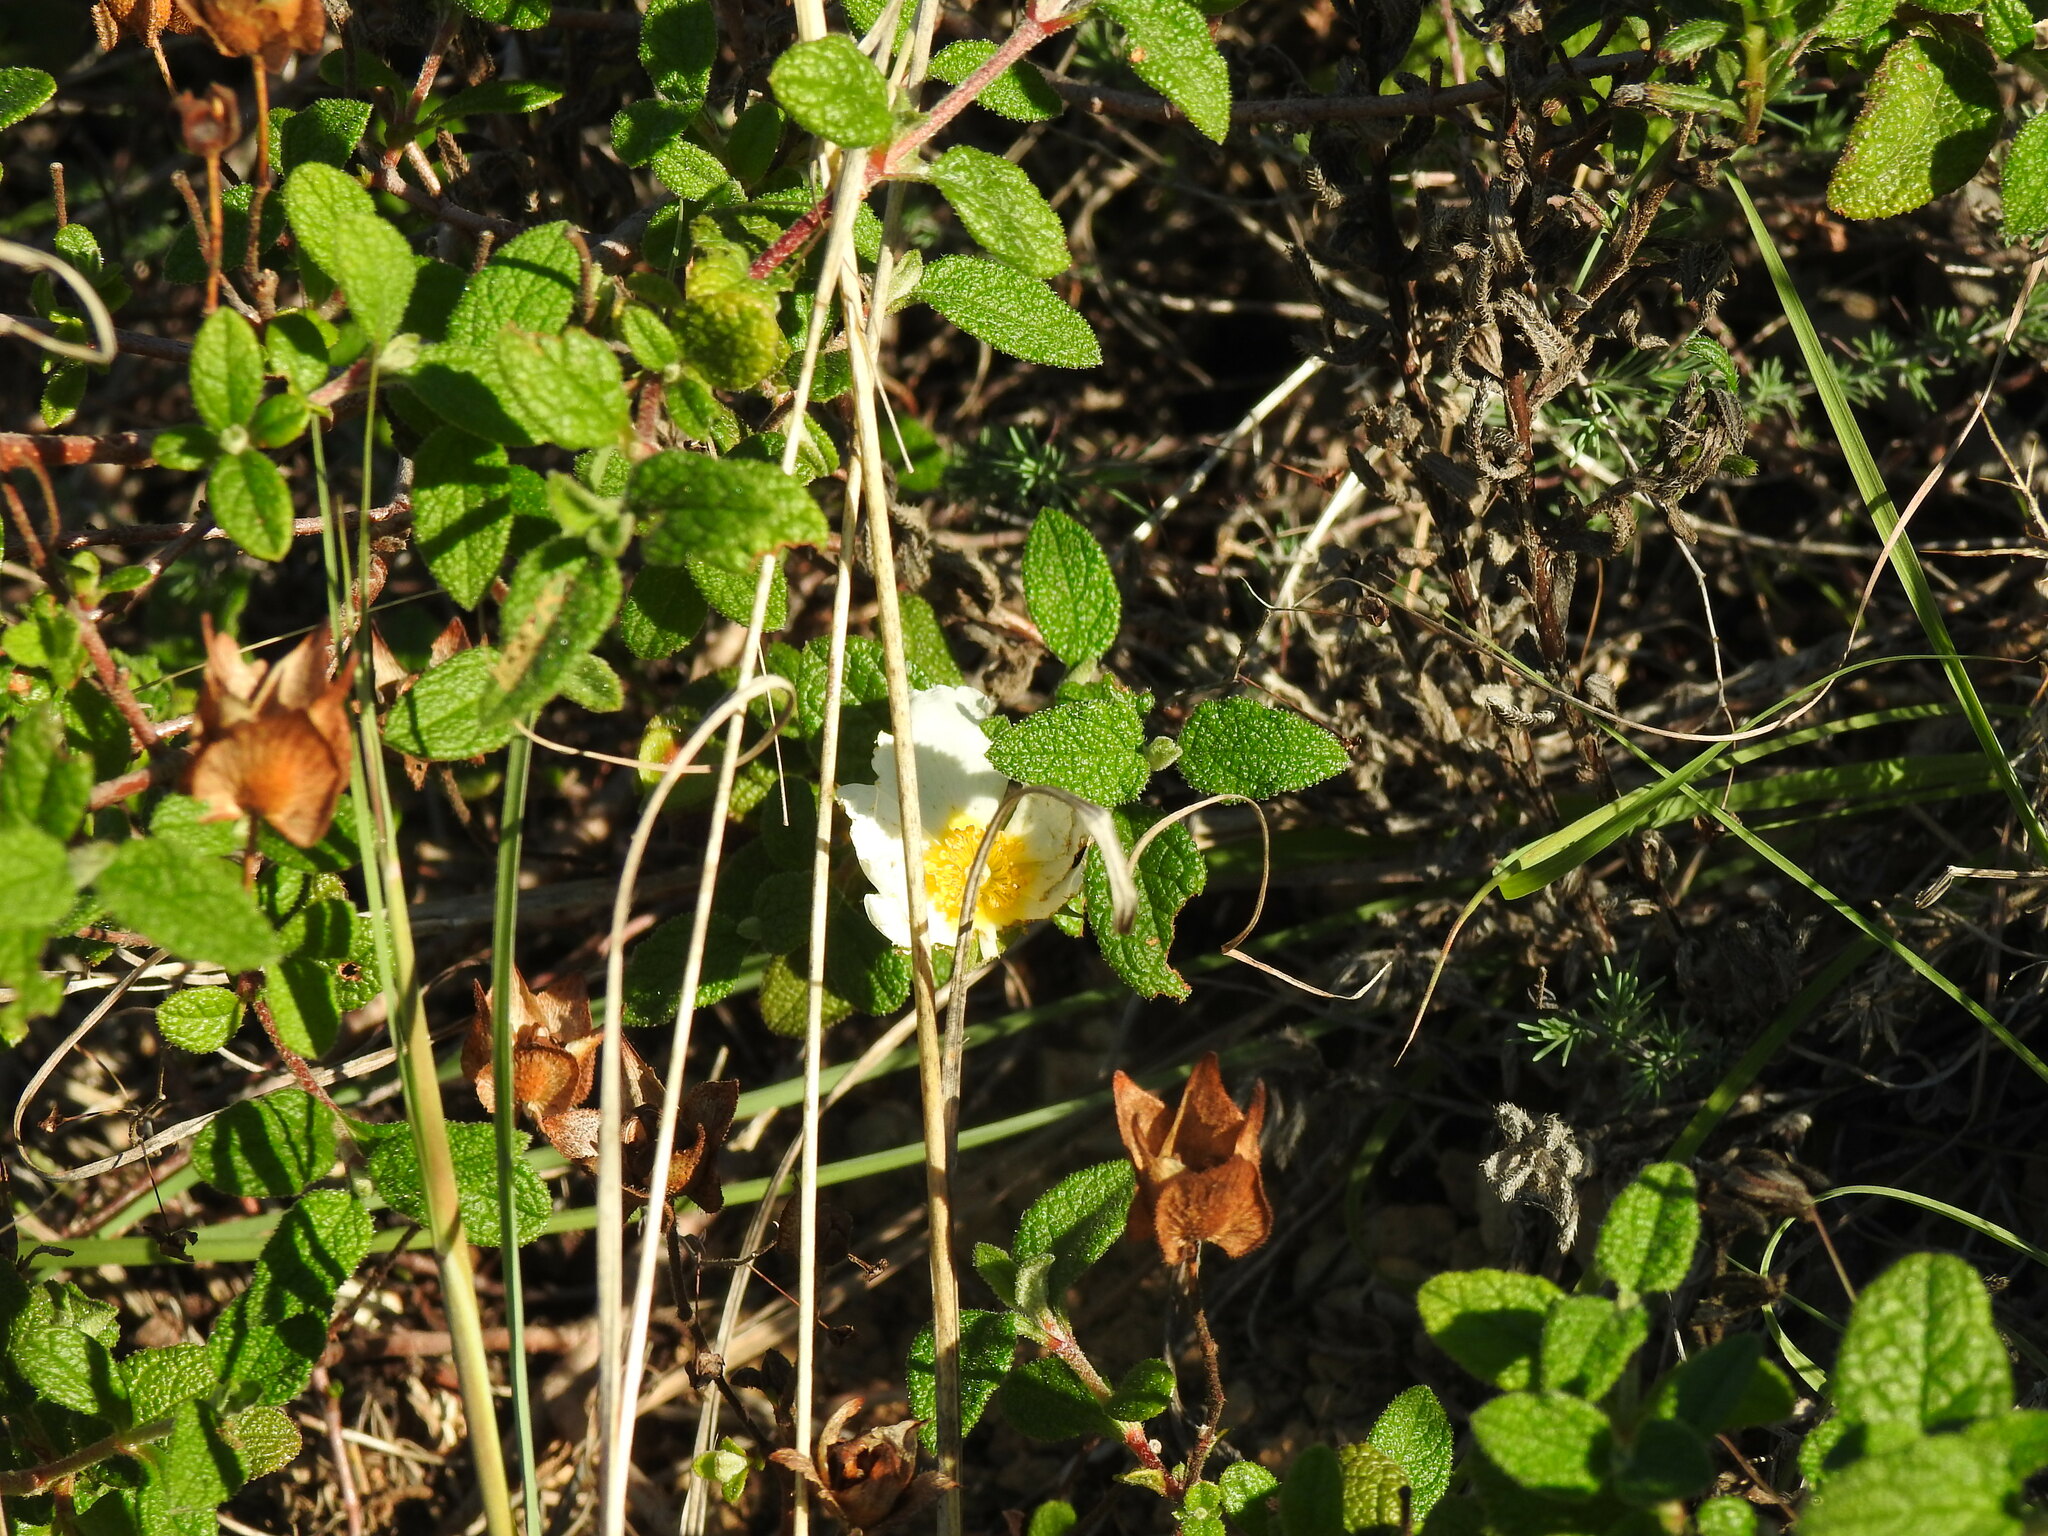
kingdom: Plantae
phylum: Tracheophyta
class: Magnoliopsida
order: Malvales
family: Cistaceae
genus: Cistus
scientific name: Cistus salviifolius
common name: Salvia cistus
